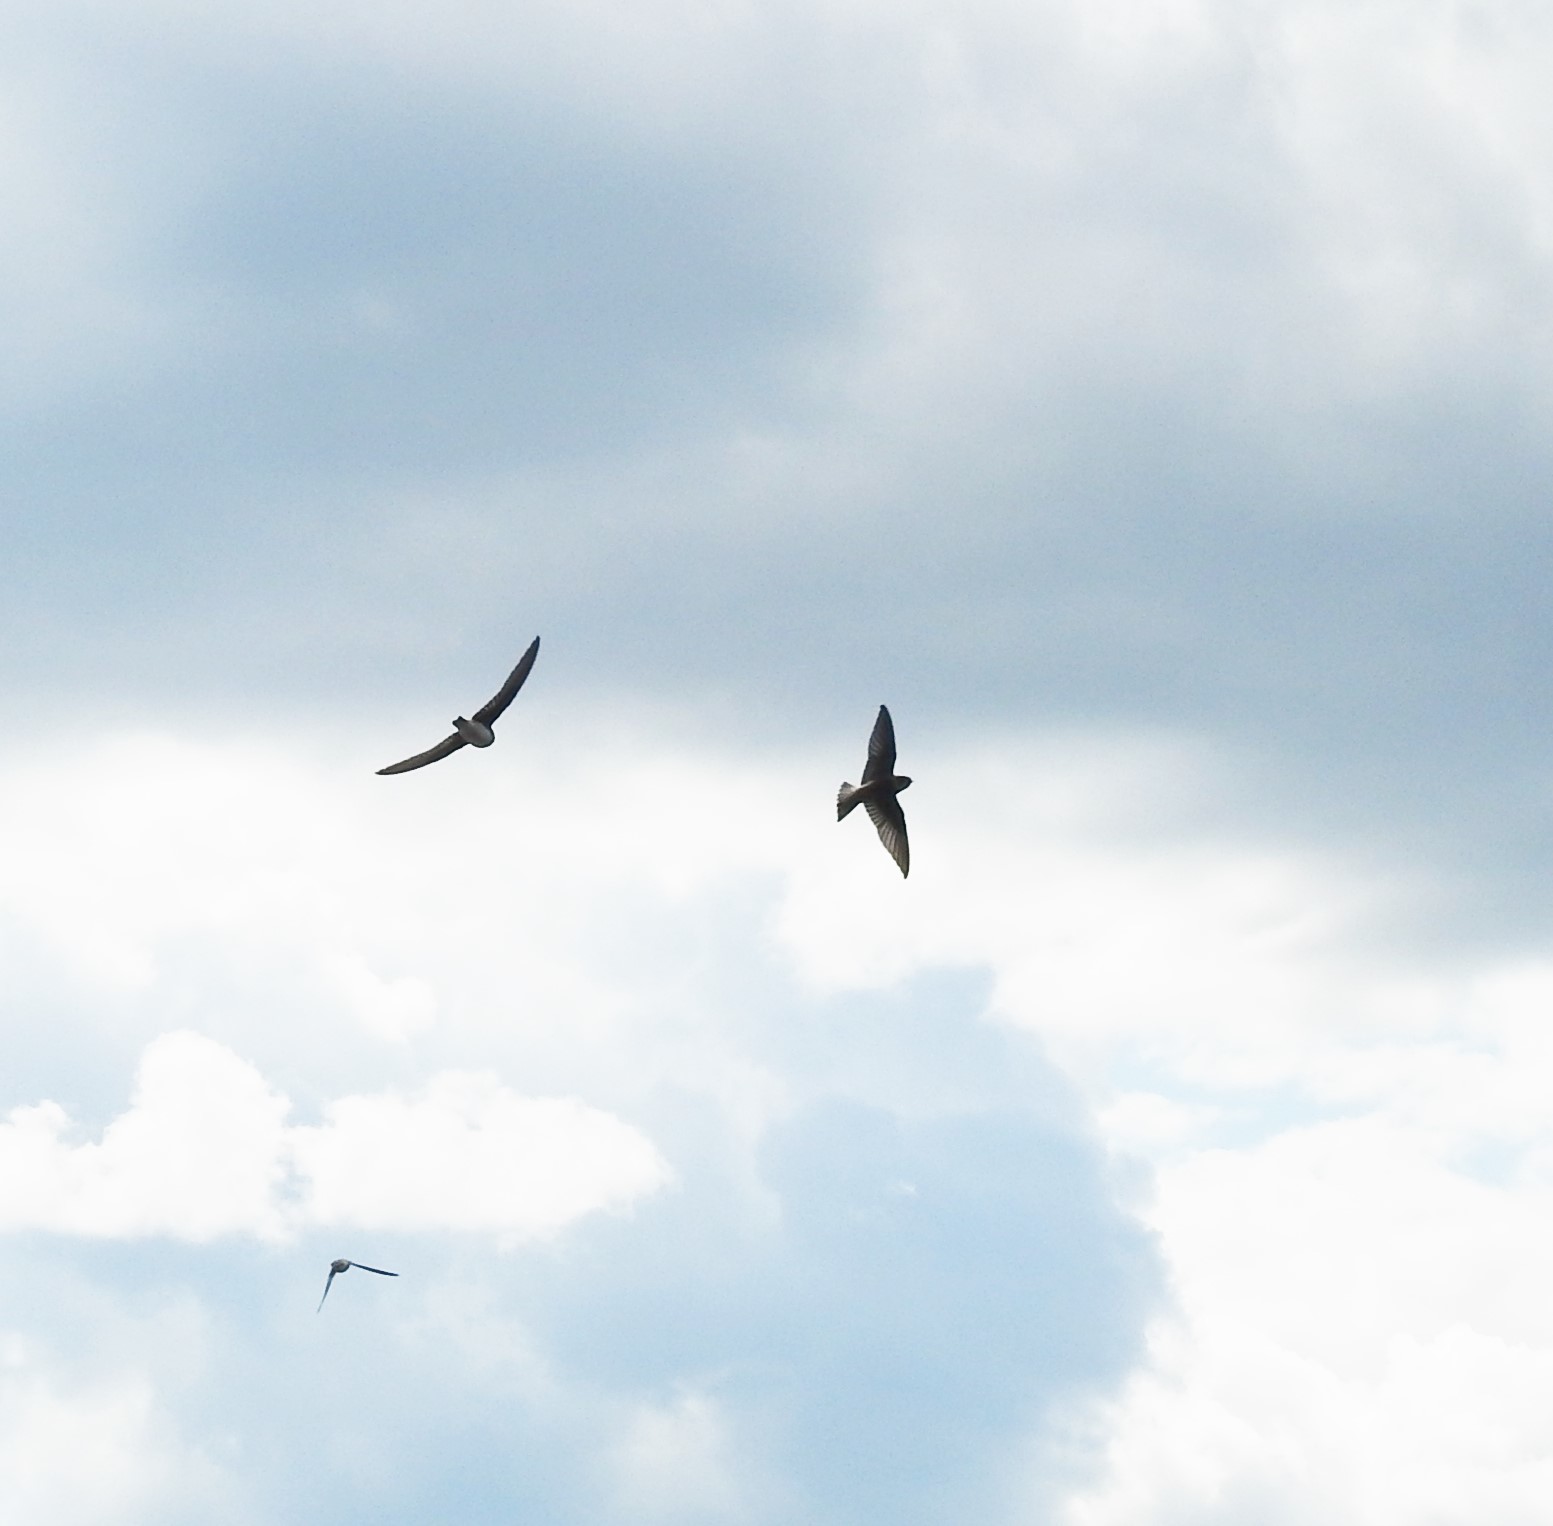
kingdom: Animalia
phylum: Chordata
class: Aves
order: Passeriformes
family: Hirundinidae
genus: Riparia
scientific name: Riparia riparia
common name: Sand martin
